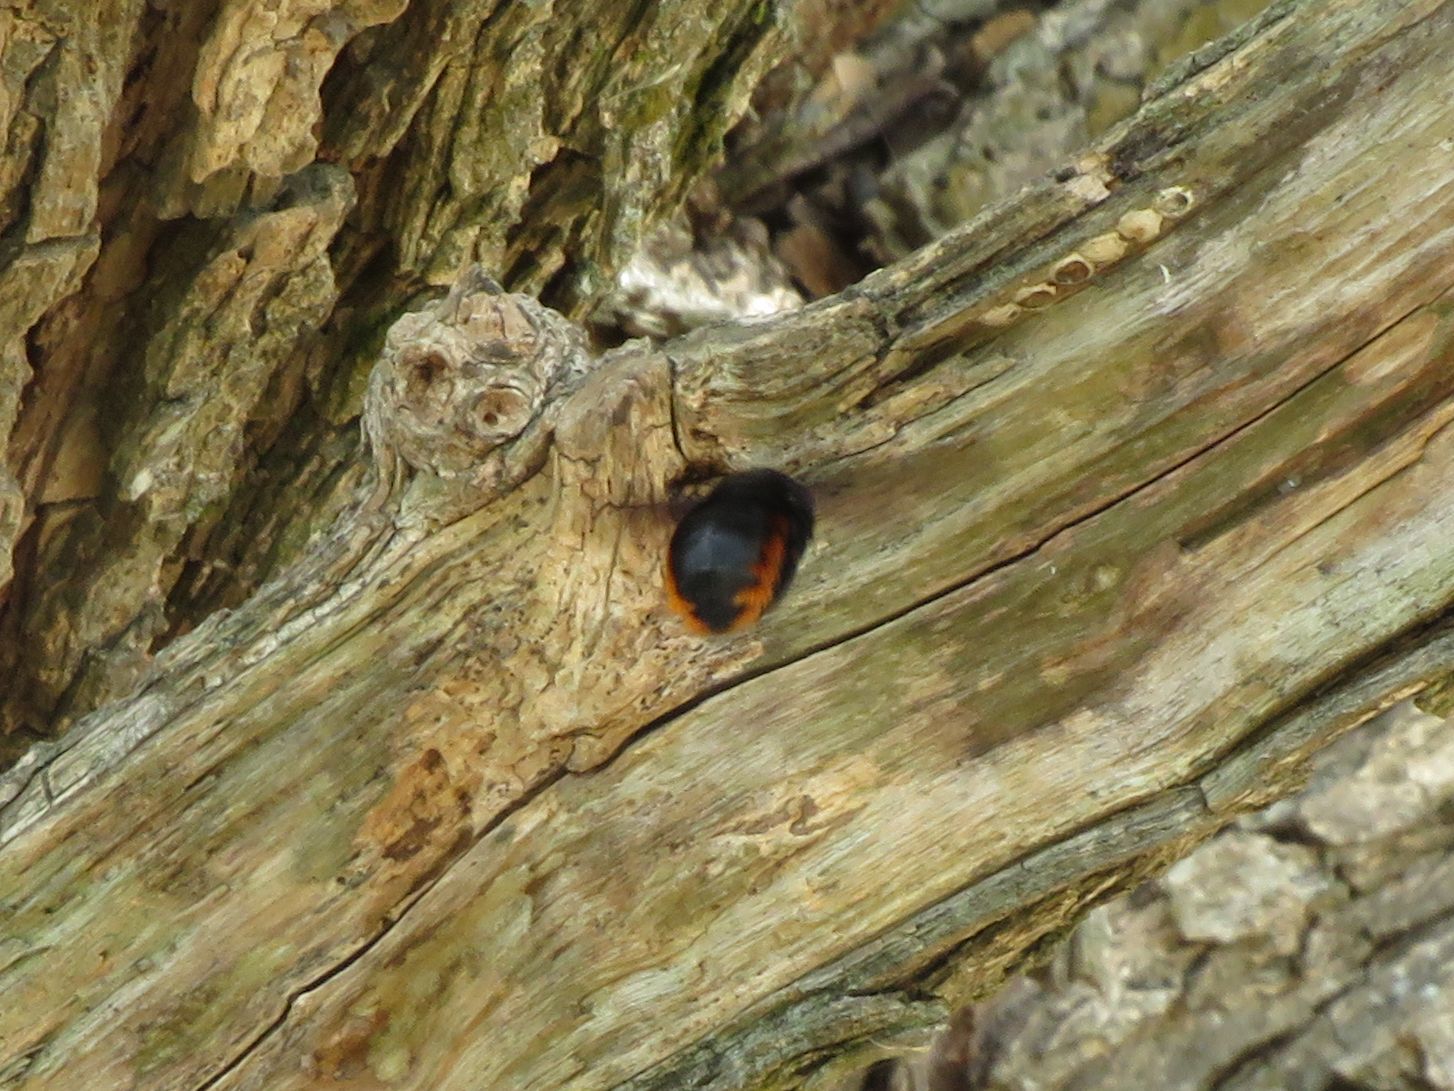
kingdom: Animalia
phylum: Arthropoda
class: Insecta
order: Hymenoptera
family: Apidae
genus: Xylocopa
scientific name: Xylocopa augusti
